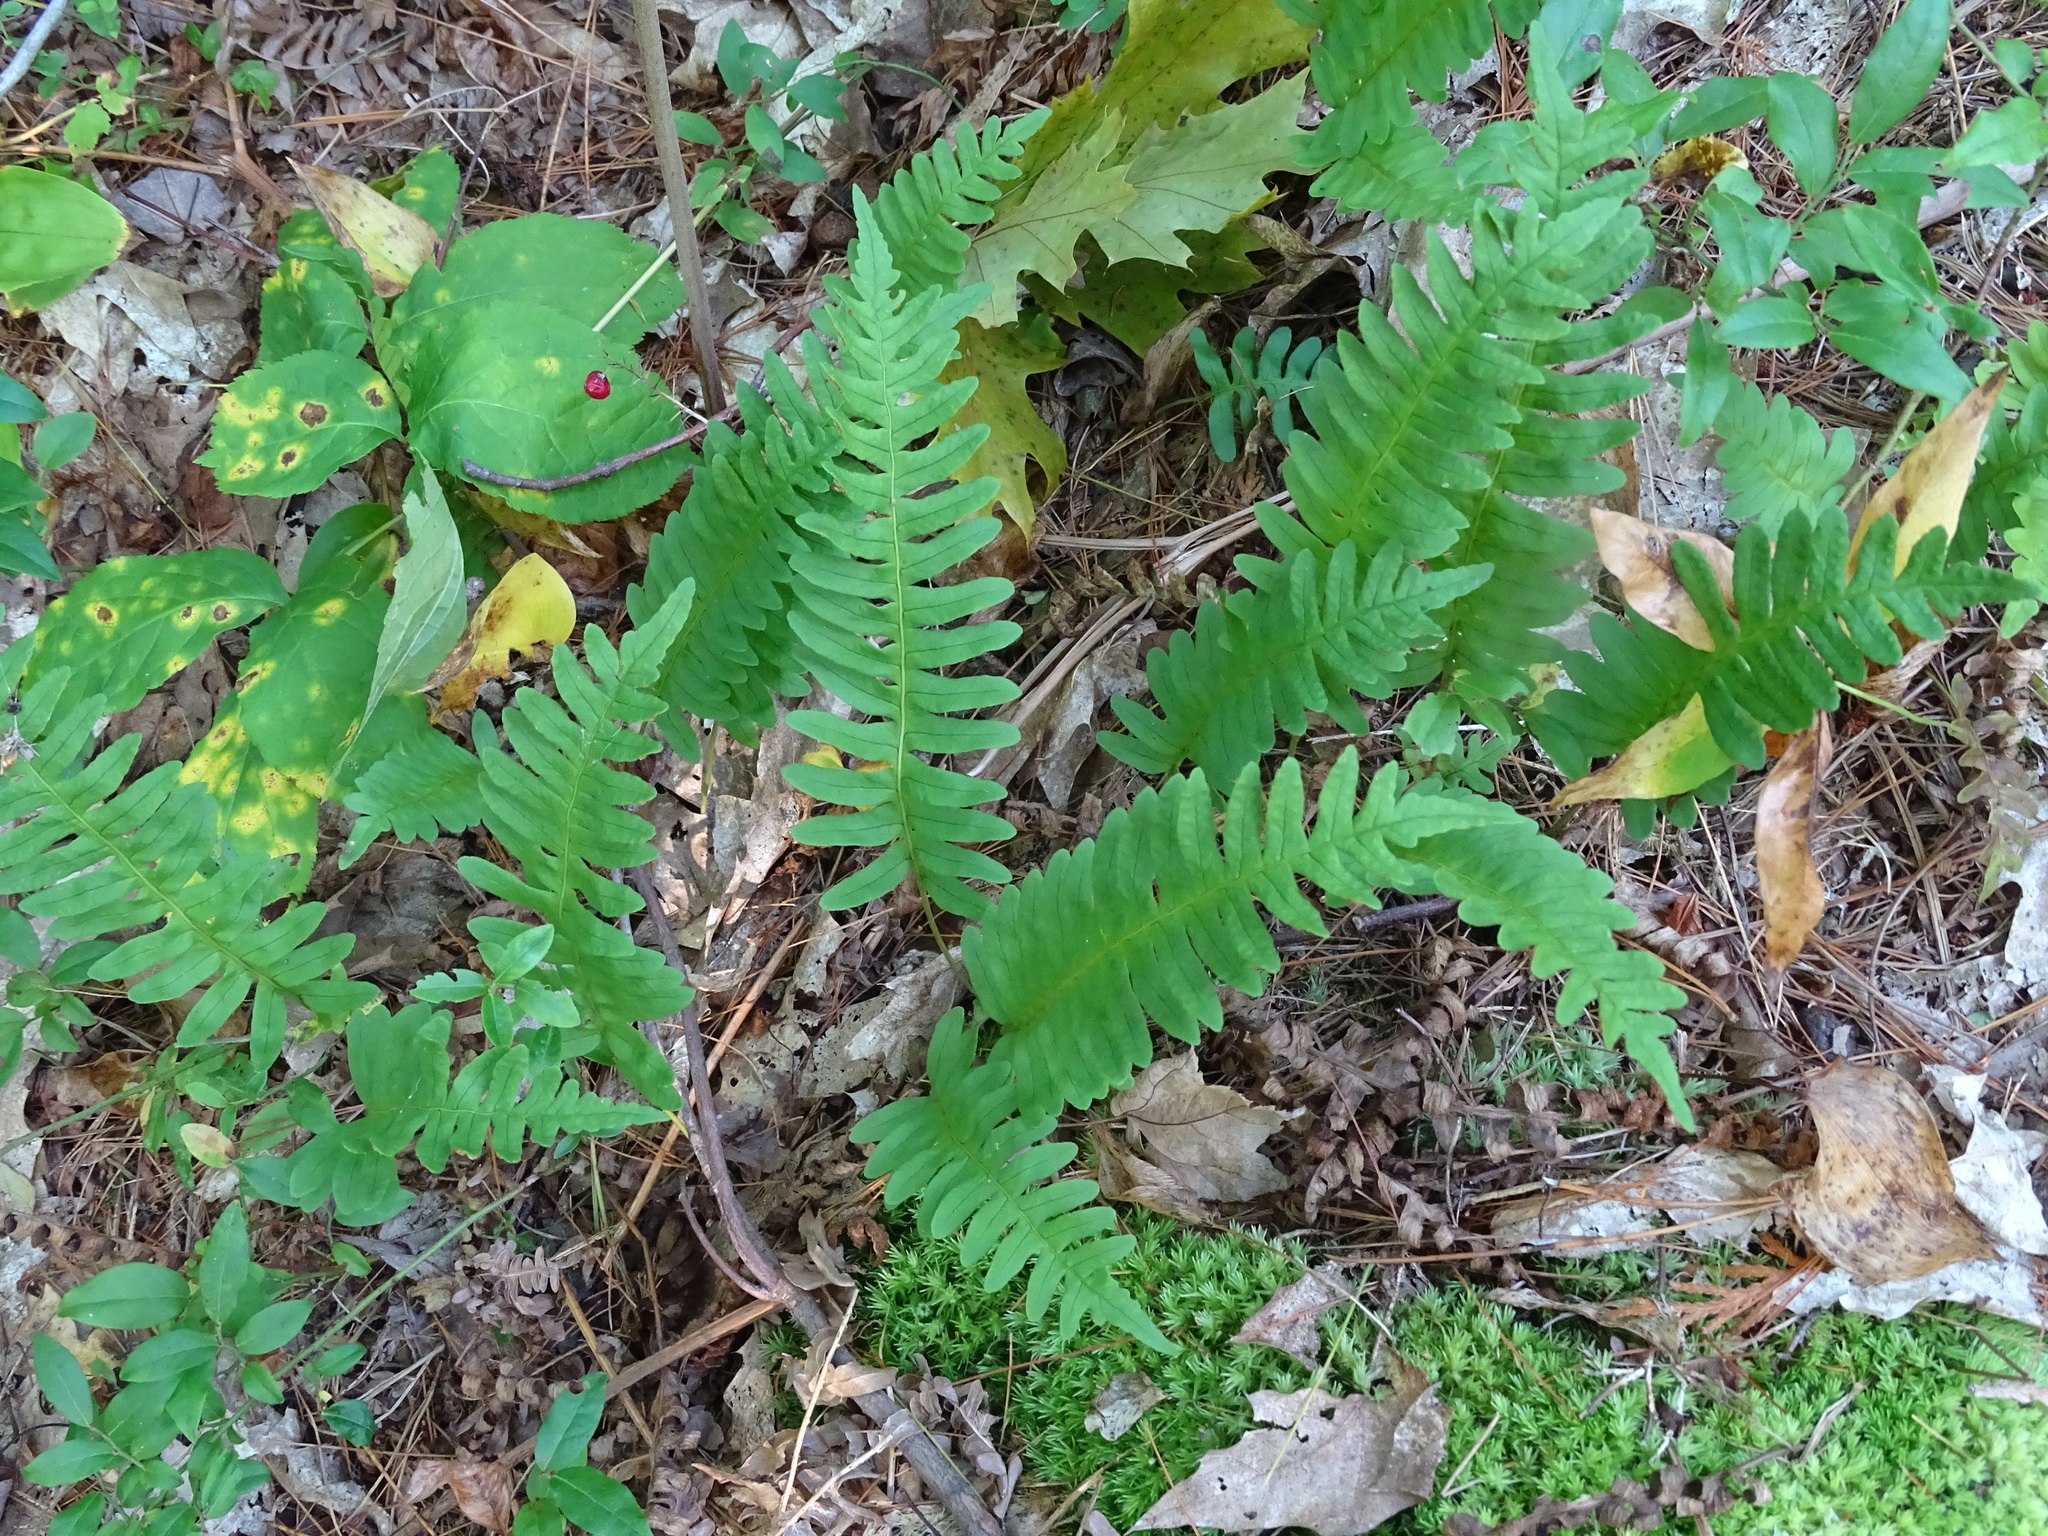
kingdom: Plantae
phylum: Tracheophyta
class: Polypodiopsida
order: Polypodiales
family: Polypodiaceae
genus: Polypodium
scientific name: Polypodium virginianum
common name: American wall fern
